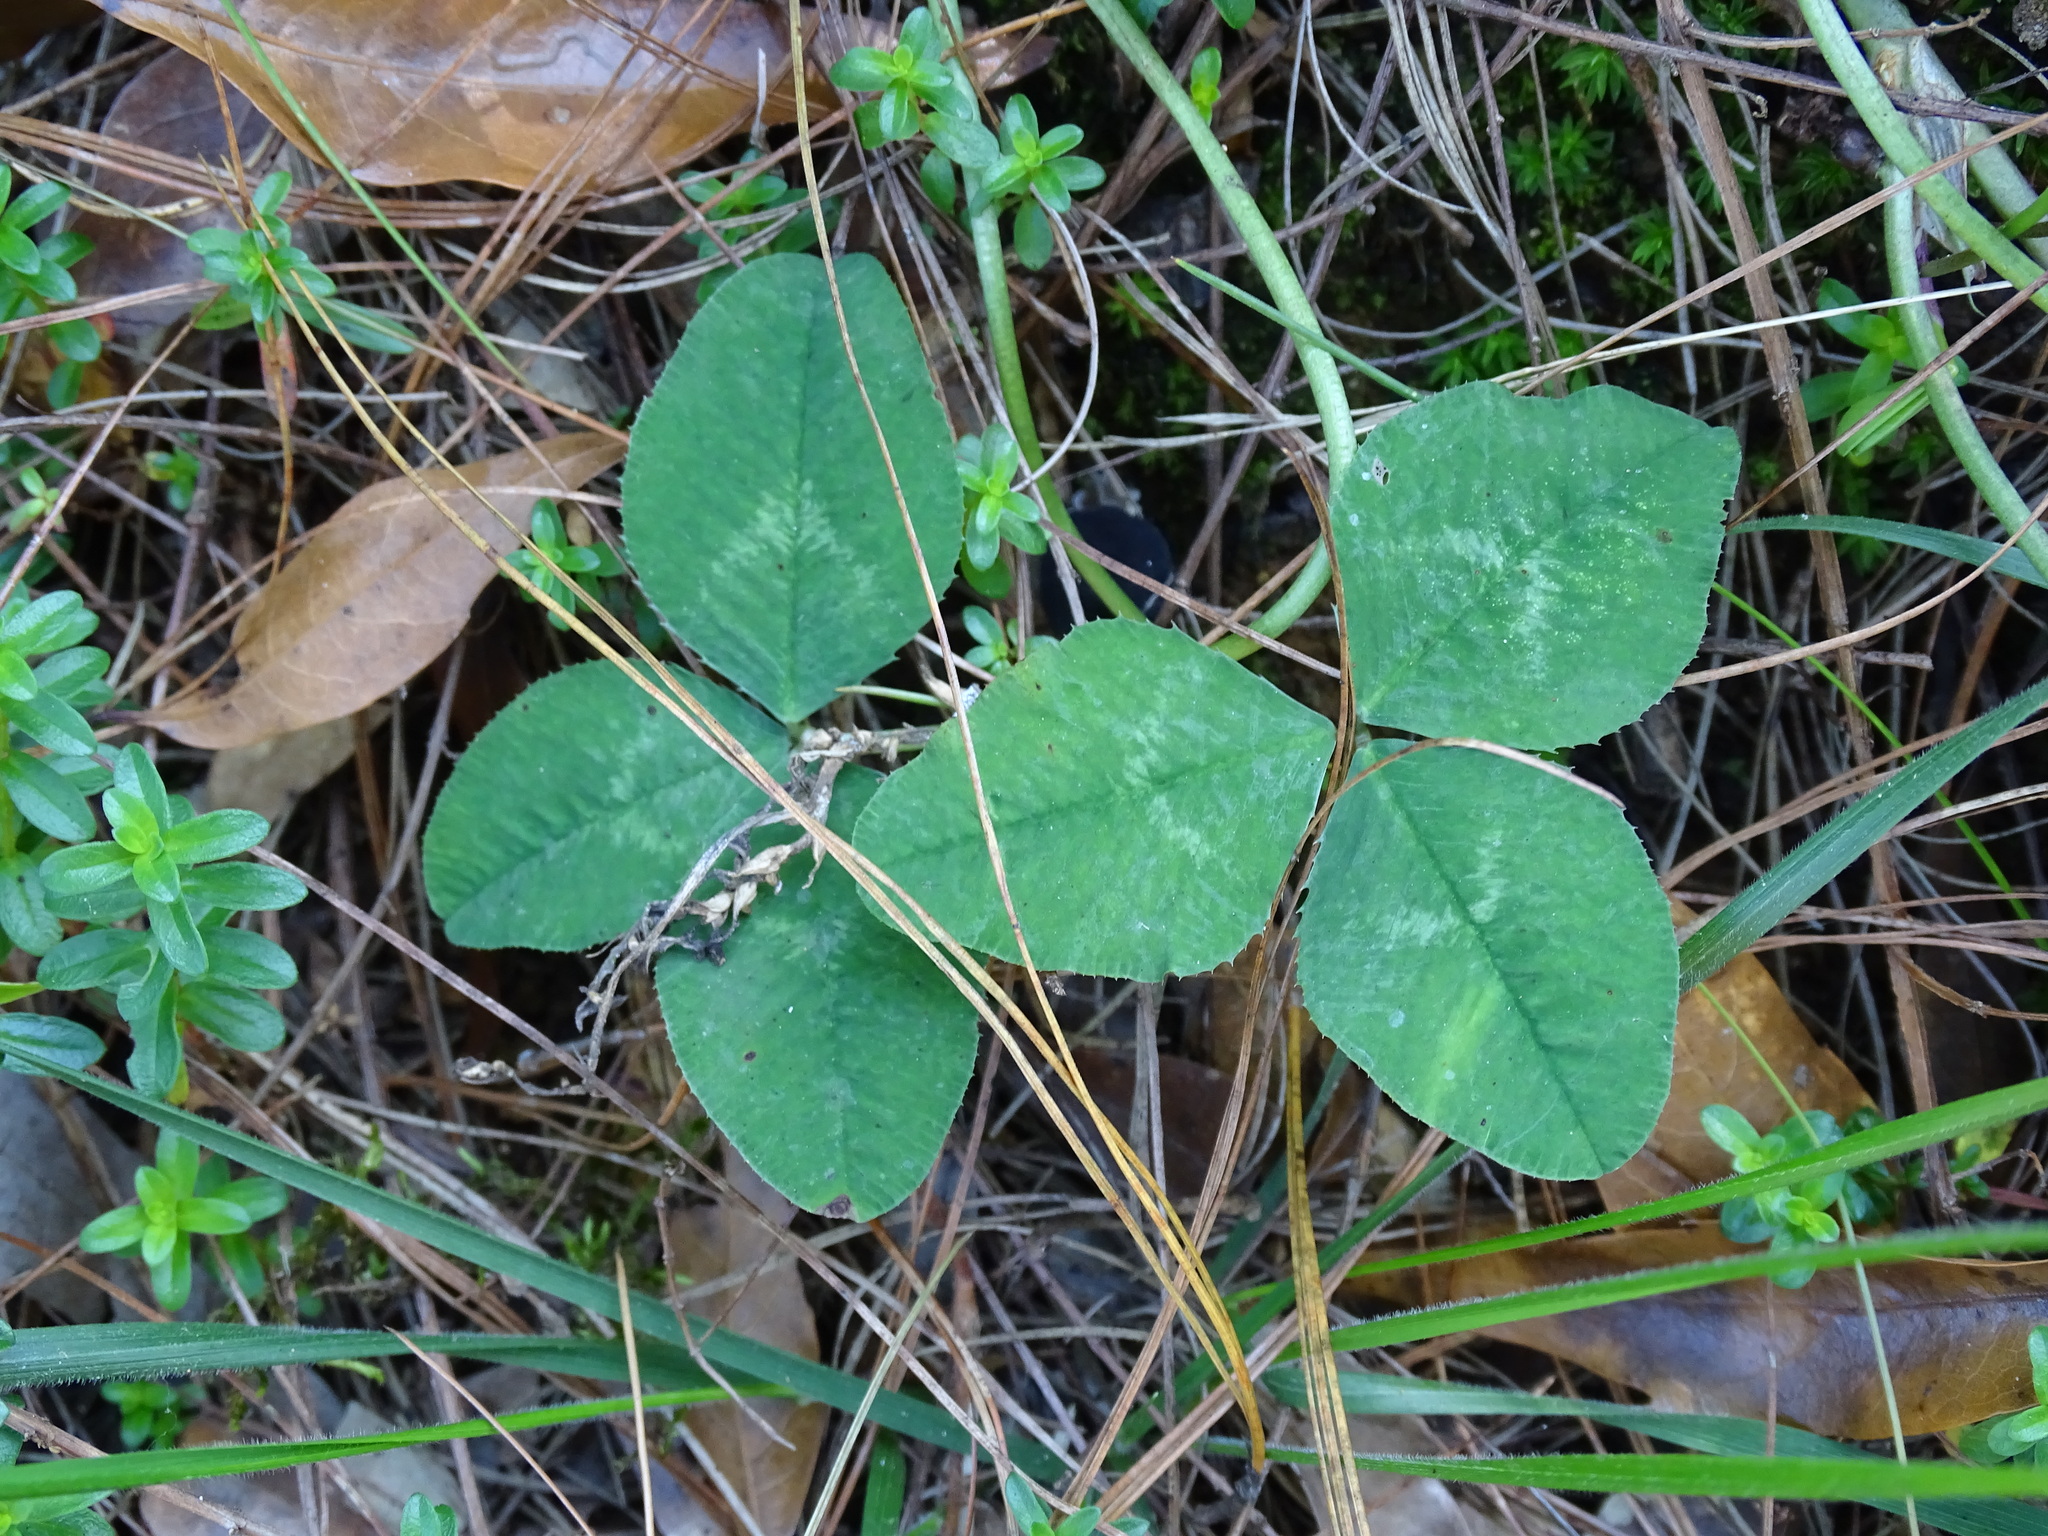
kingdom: Plantae
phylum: Tracheophyta
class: Magnoliopsida
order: Fabales
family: Fabaceae
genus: Trifolium
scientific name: Trifolium repens
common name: White clover
